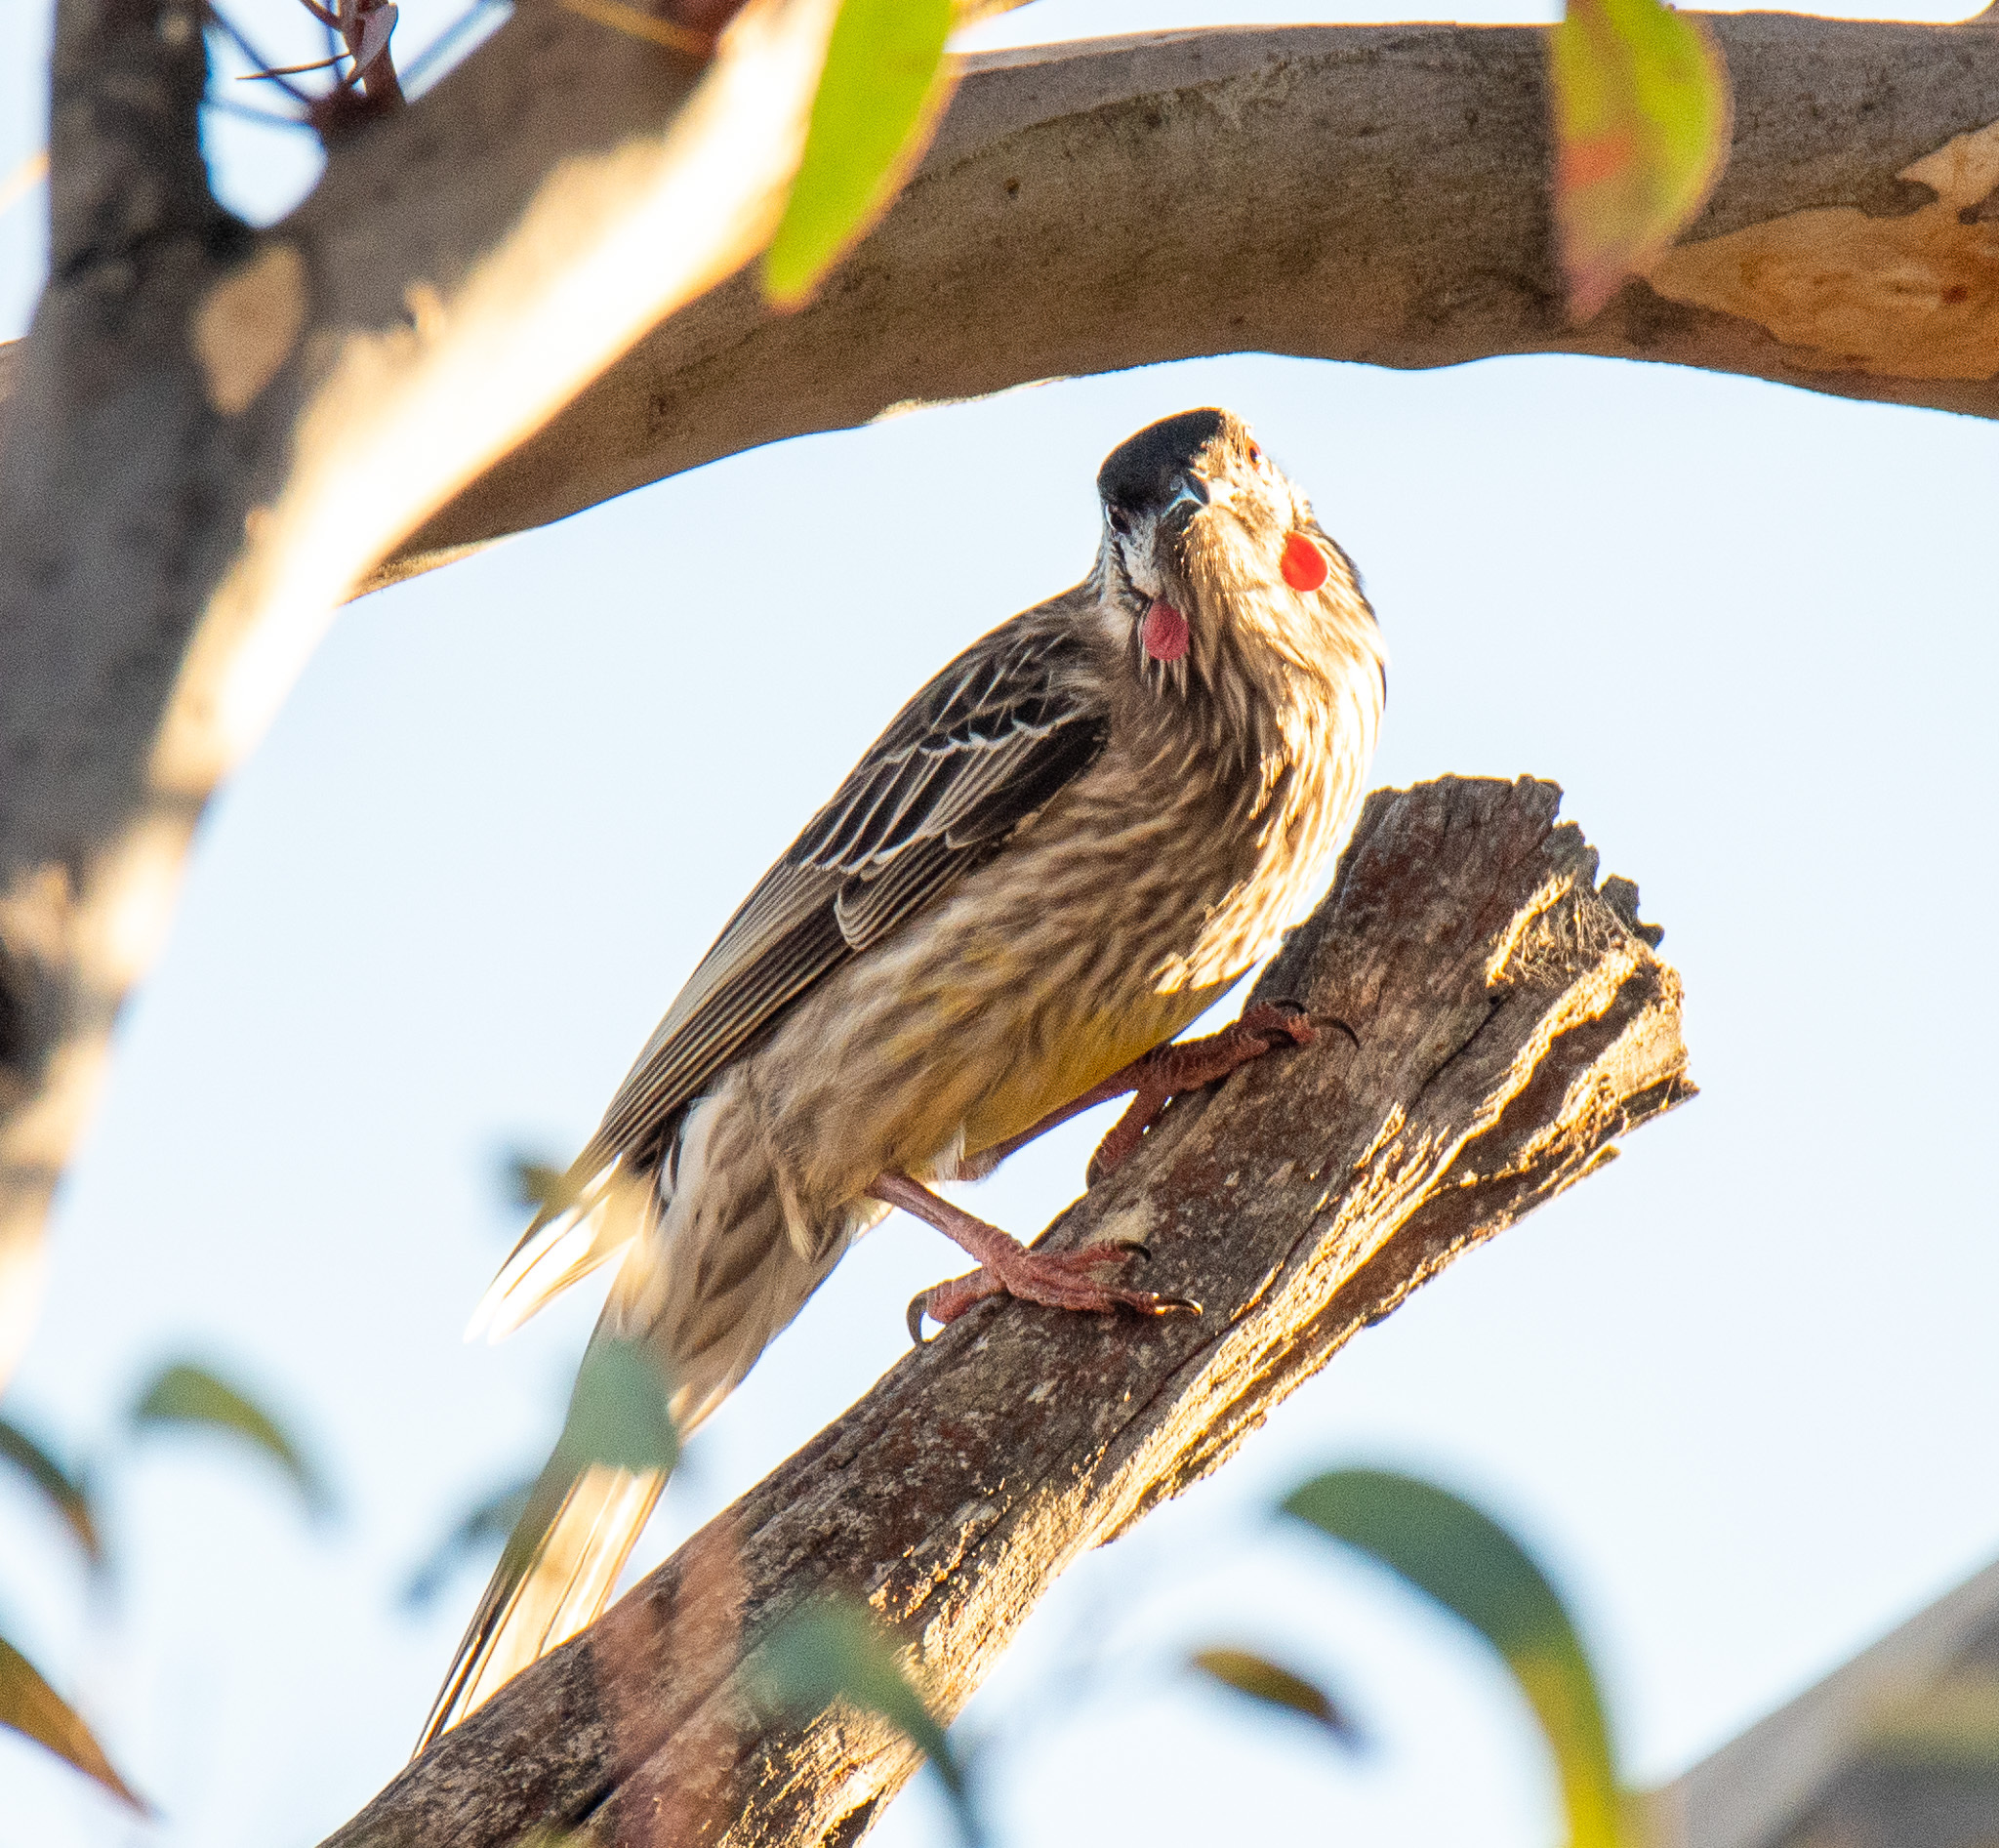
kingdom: Animalia
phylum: Chordata
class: Aves
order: Passeriformes
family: Meliphagidae
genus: Anthochaera
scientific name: Anthochaera carunculata
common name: Red wattlebird
